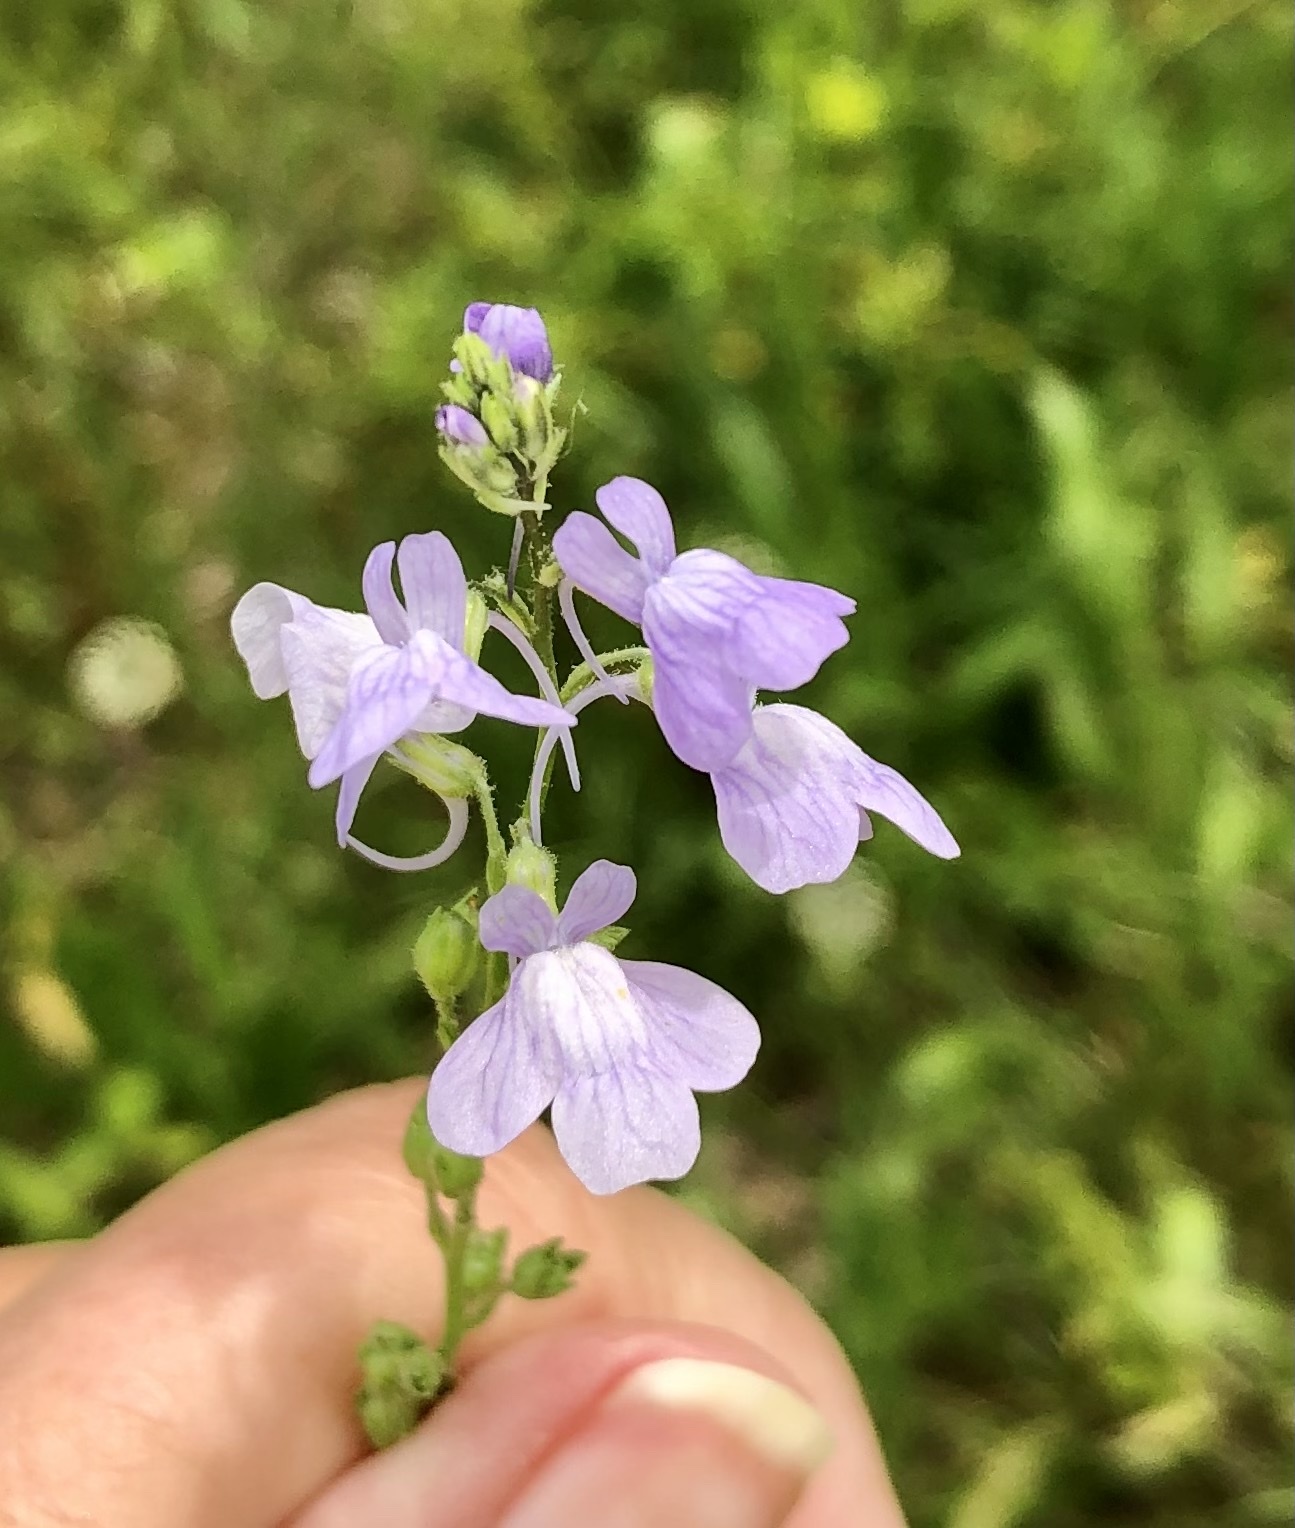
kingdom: Plantae
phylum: Tracheophyta
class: Magnoliopsida
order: Lamiales
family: Plantaginaceae
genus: Nuttallanthus
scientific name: Nuttallanthus texanus
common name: Texas toadflax
